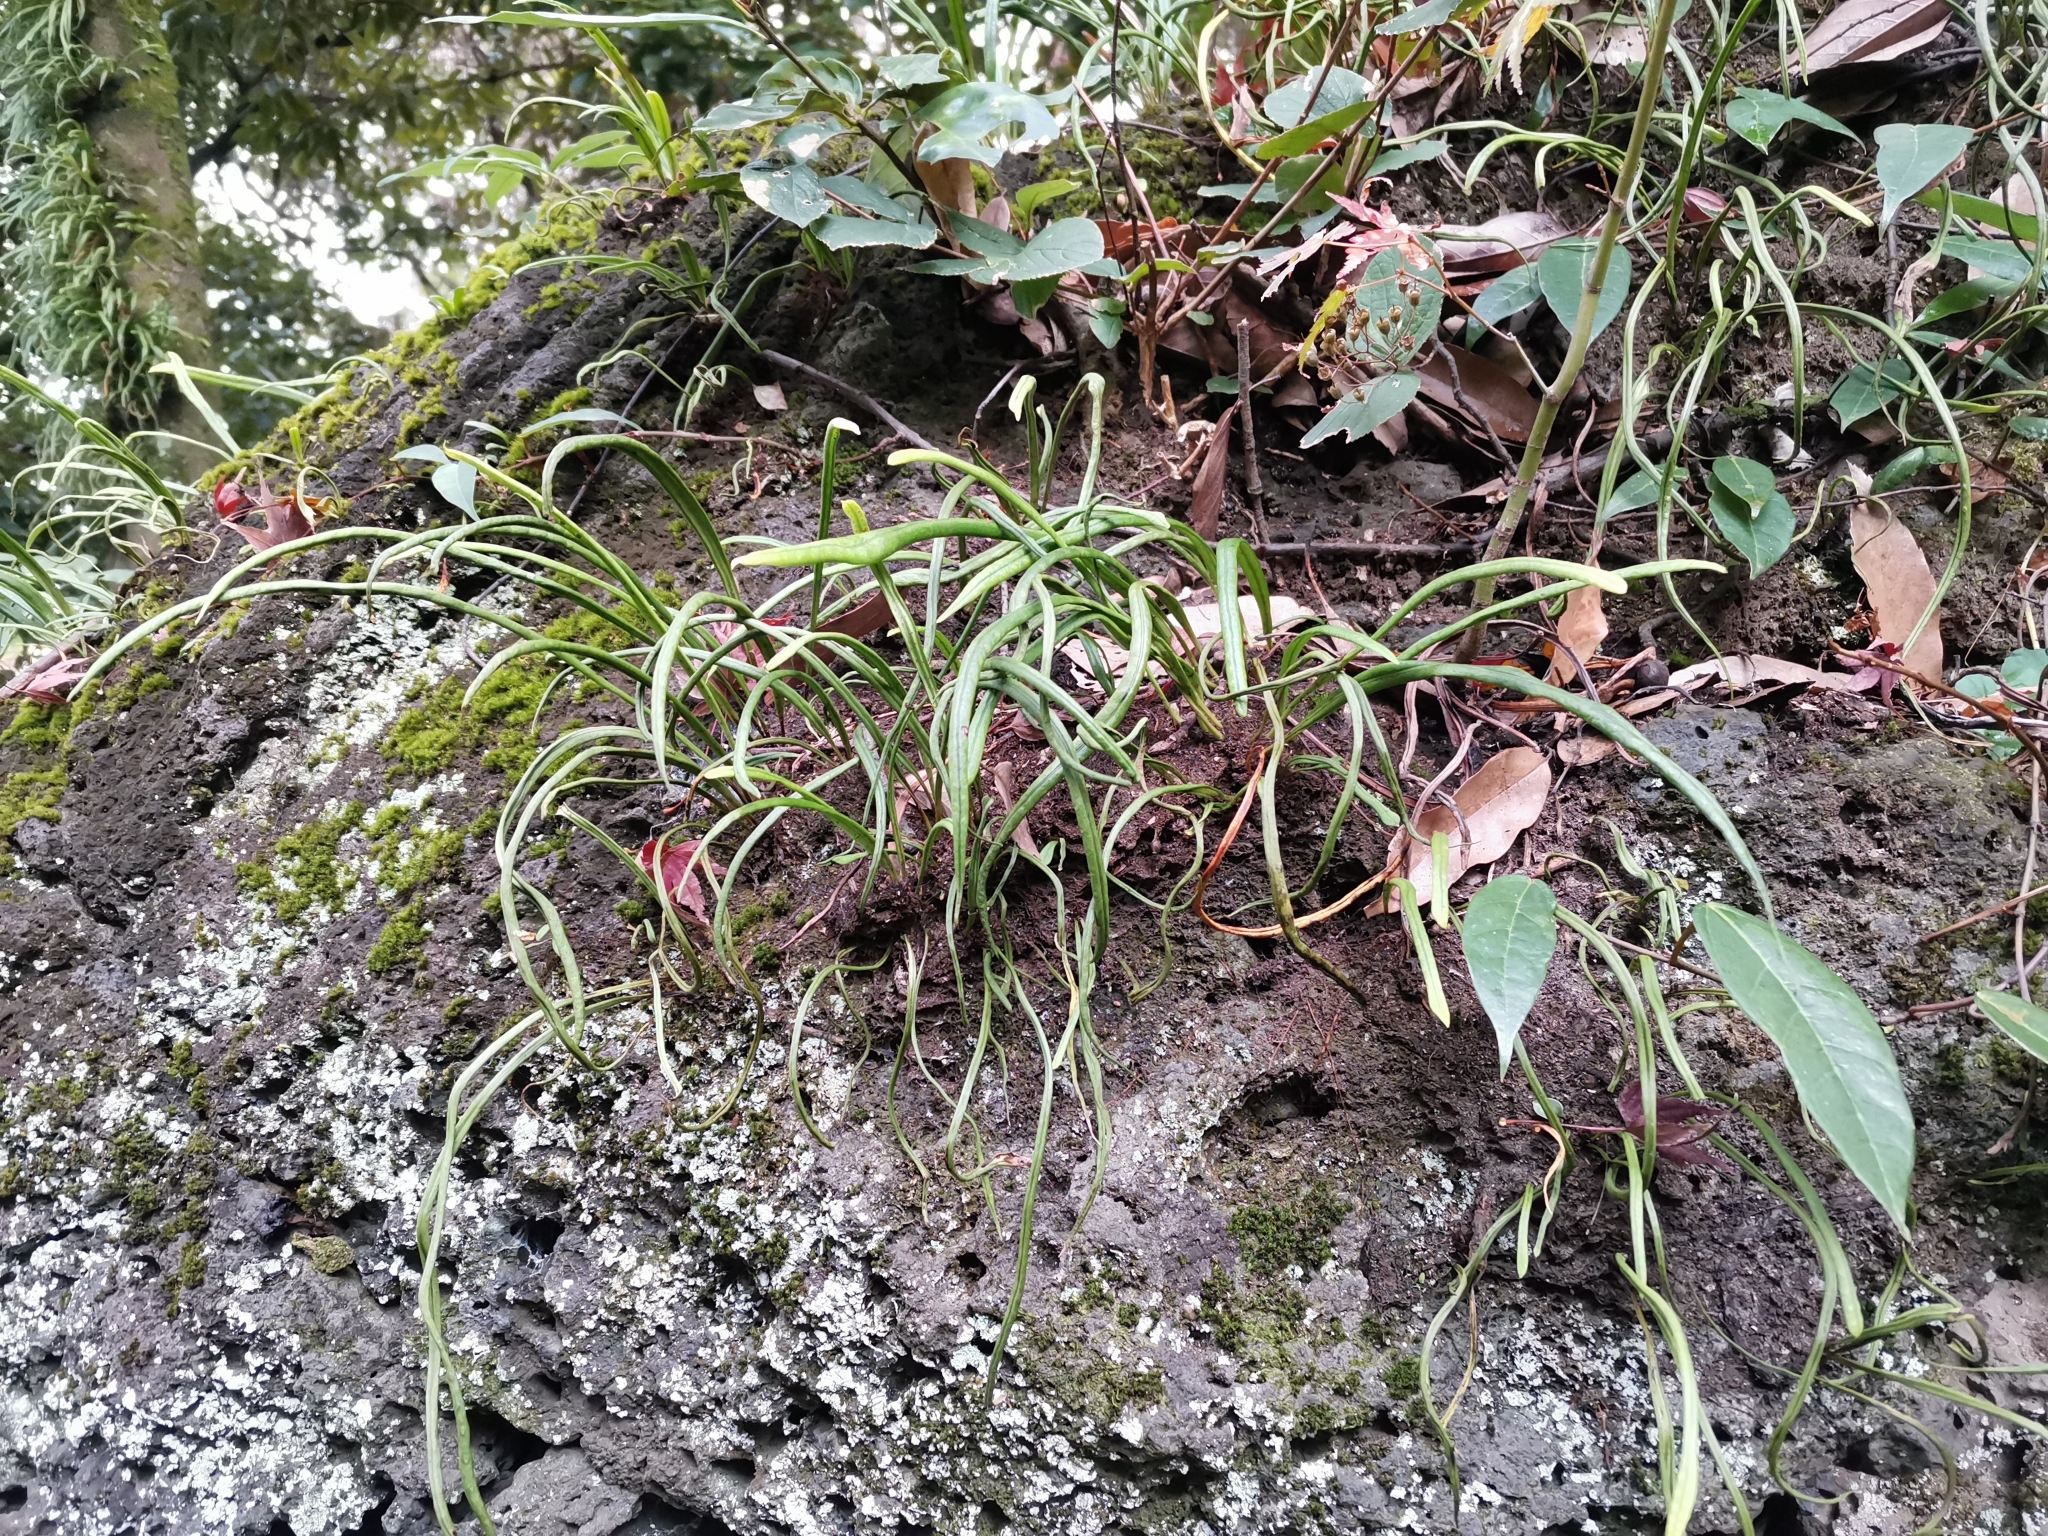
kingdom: Plantae
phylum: Tracheophyta
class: Polypodiopsida
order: Polypodiales
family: Polypodiaceae
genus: Lepisorus
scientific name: Lepisorus thunbergianus
